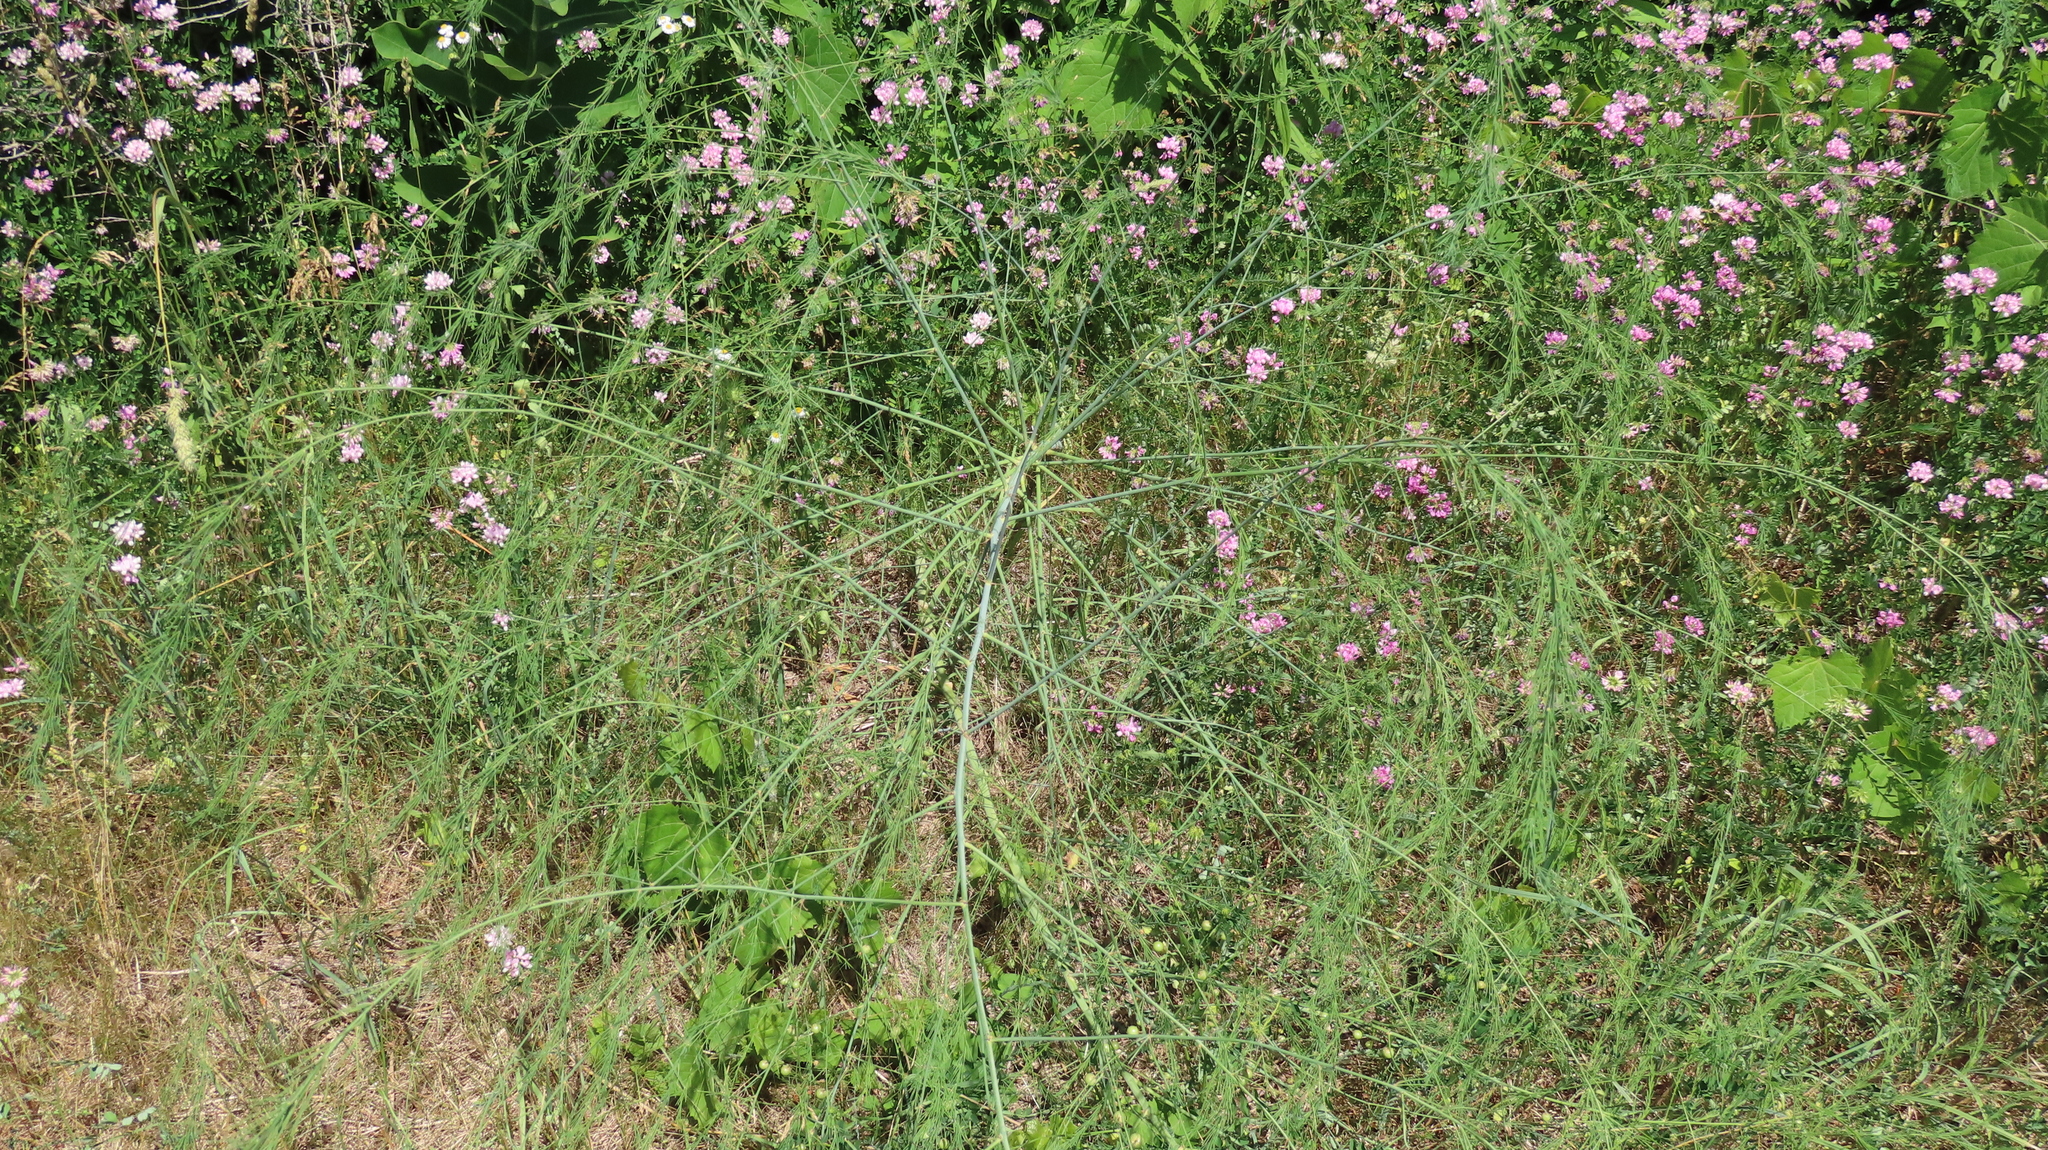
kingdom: Plantae
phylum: Tracheophyta
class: Liliopsida
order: Asparagales
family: Asparagaceae
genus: Asparagus
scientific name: Asparagus officinalis
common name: Garden asparagus
